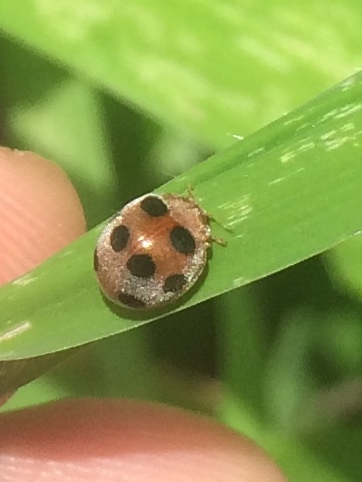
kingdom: Animalia
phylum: Arthropoda
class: Insecta
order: Coleoptera
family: Coccinellidae
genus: Afidentula
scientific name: Afidentula
